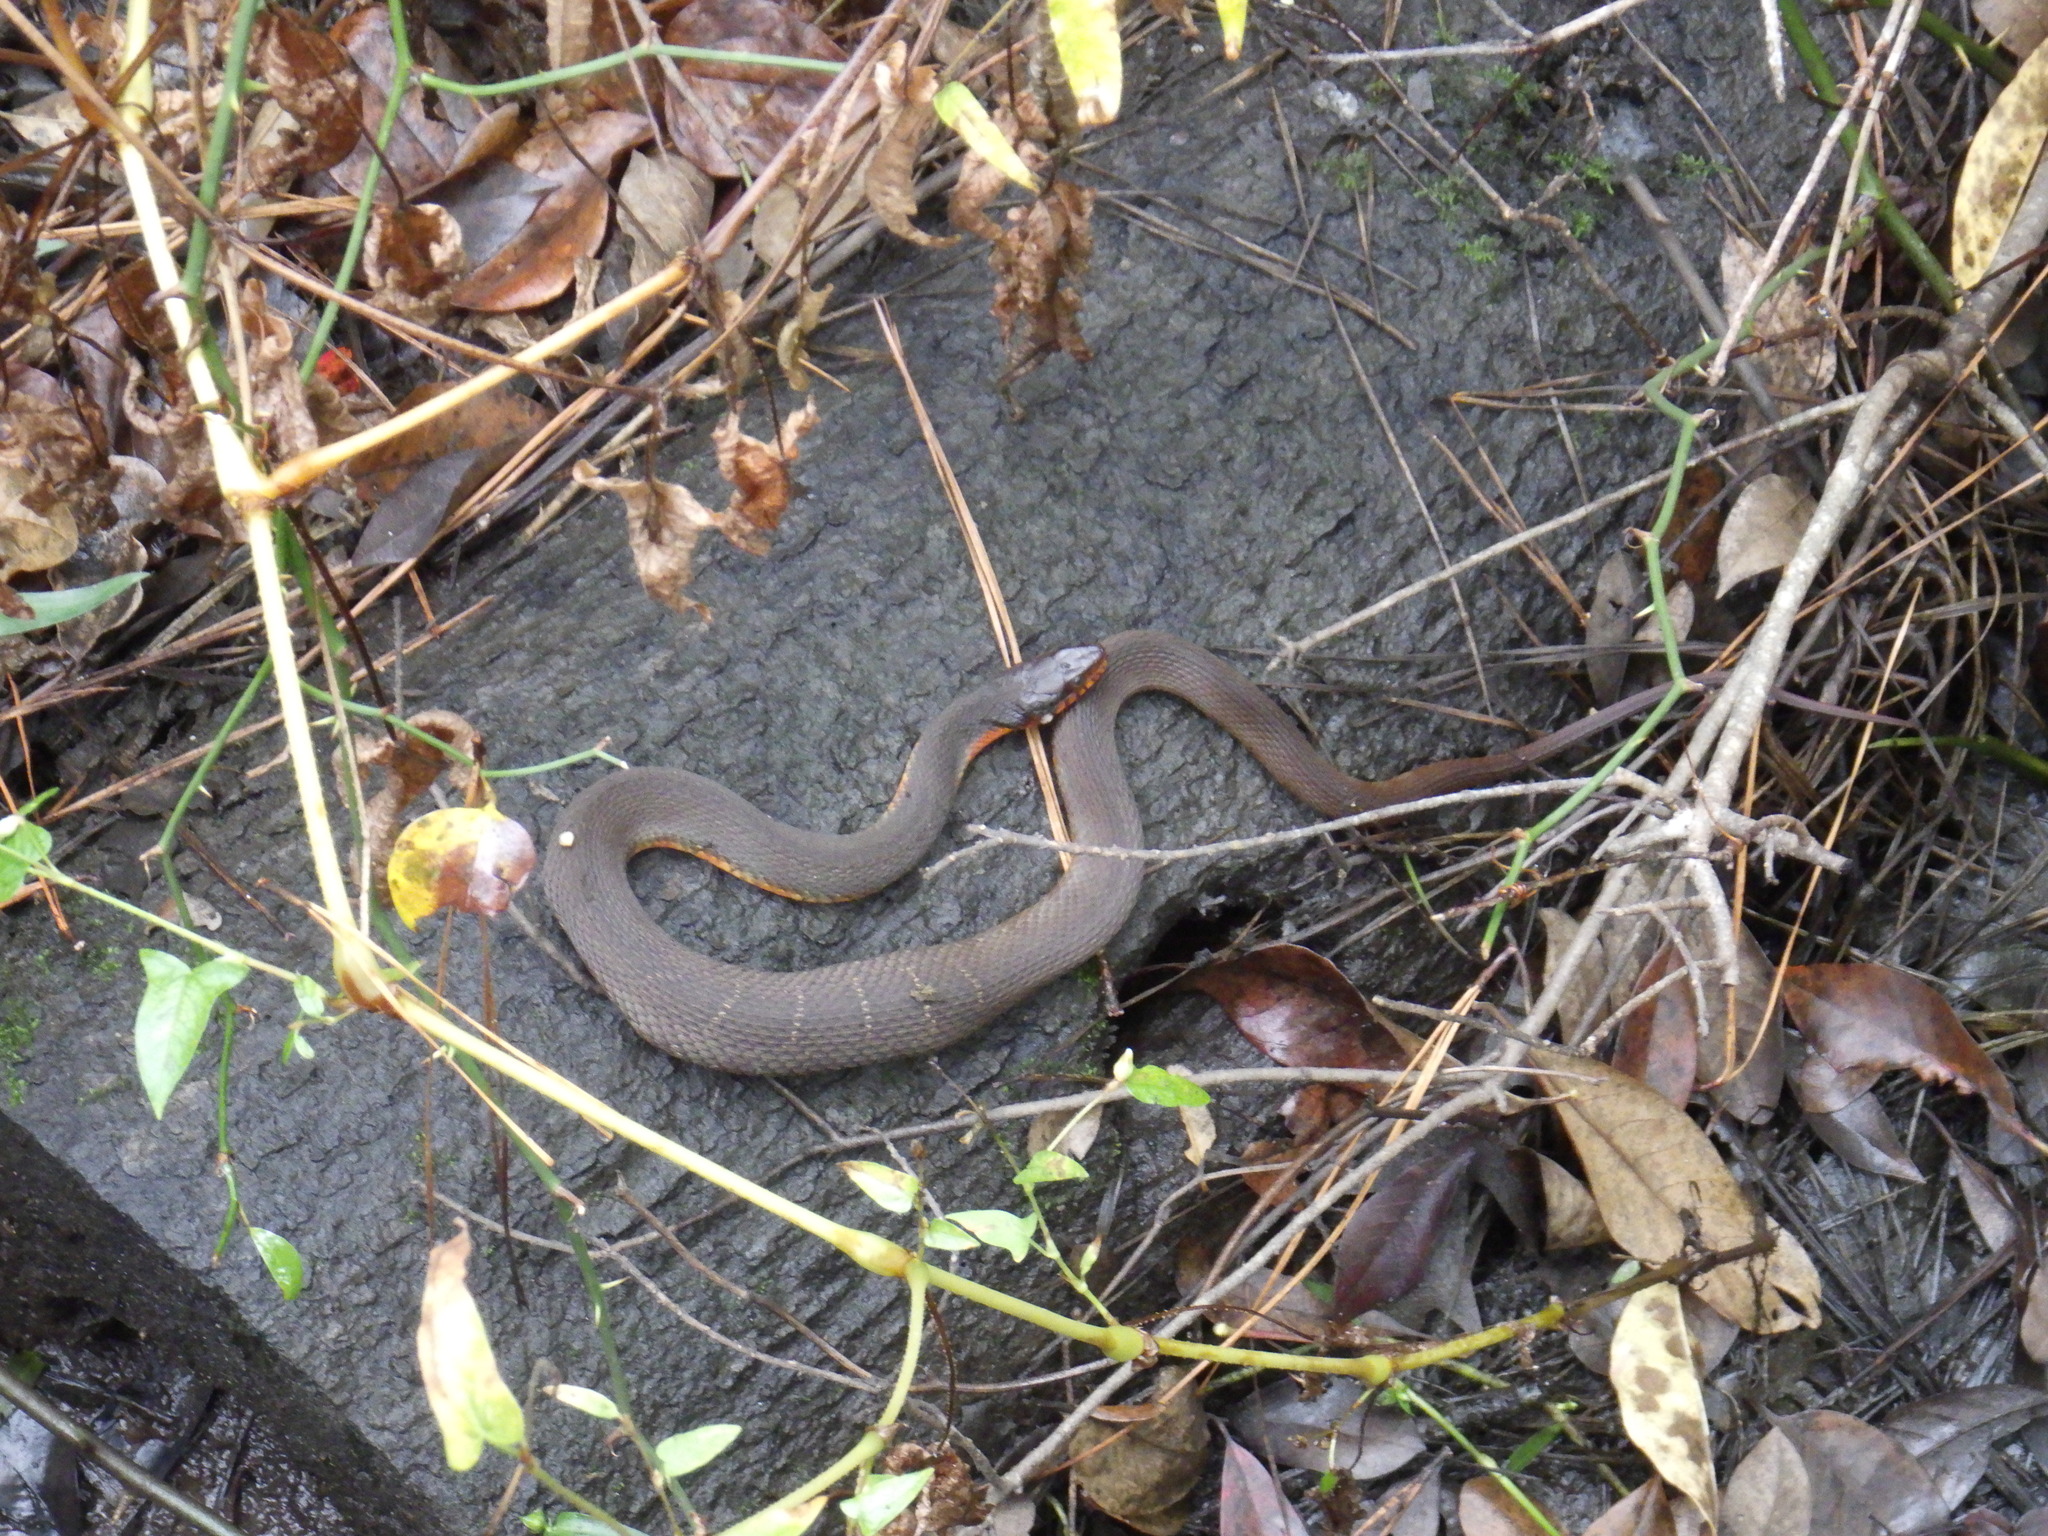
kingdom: Animalia
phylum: Chordata
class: Squamata
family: Colubridae
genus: Nerodia
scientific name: Nerodia erythrogaster
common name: Plainbelly water snake
